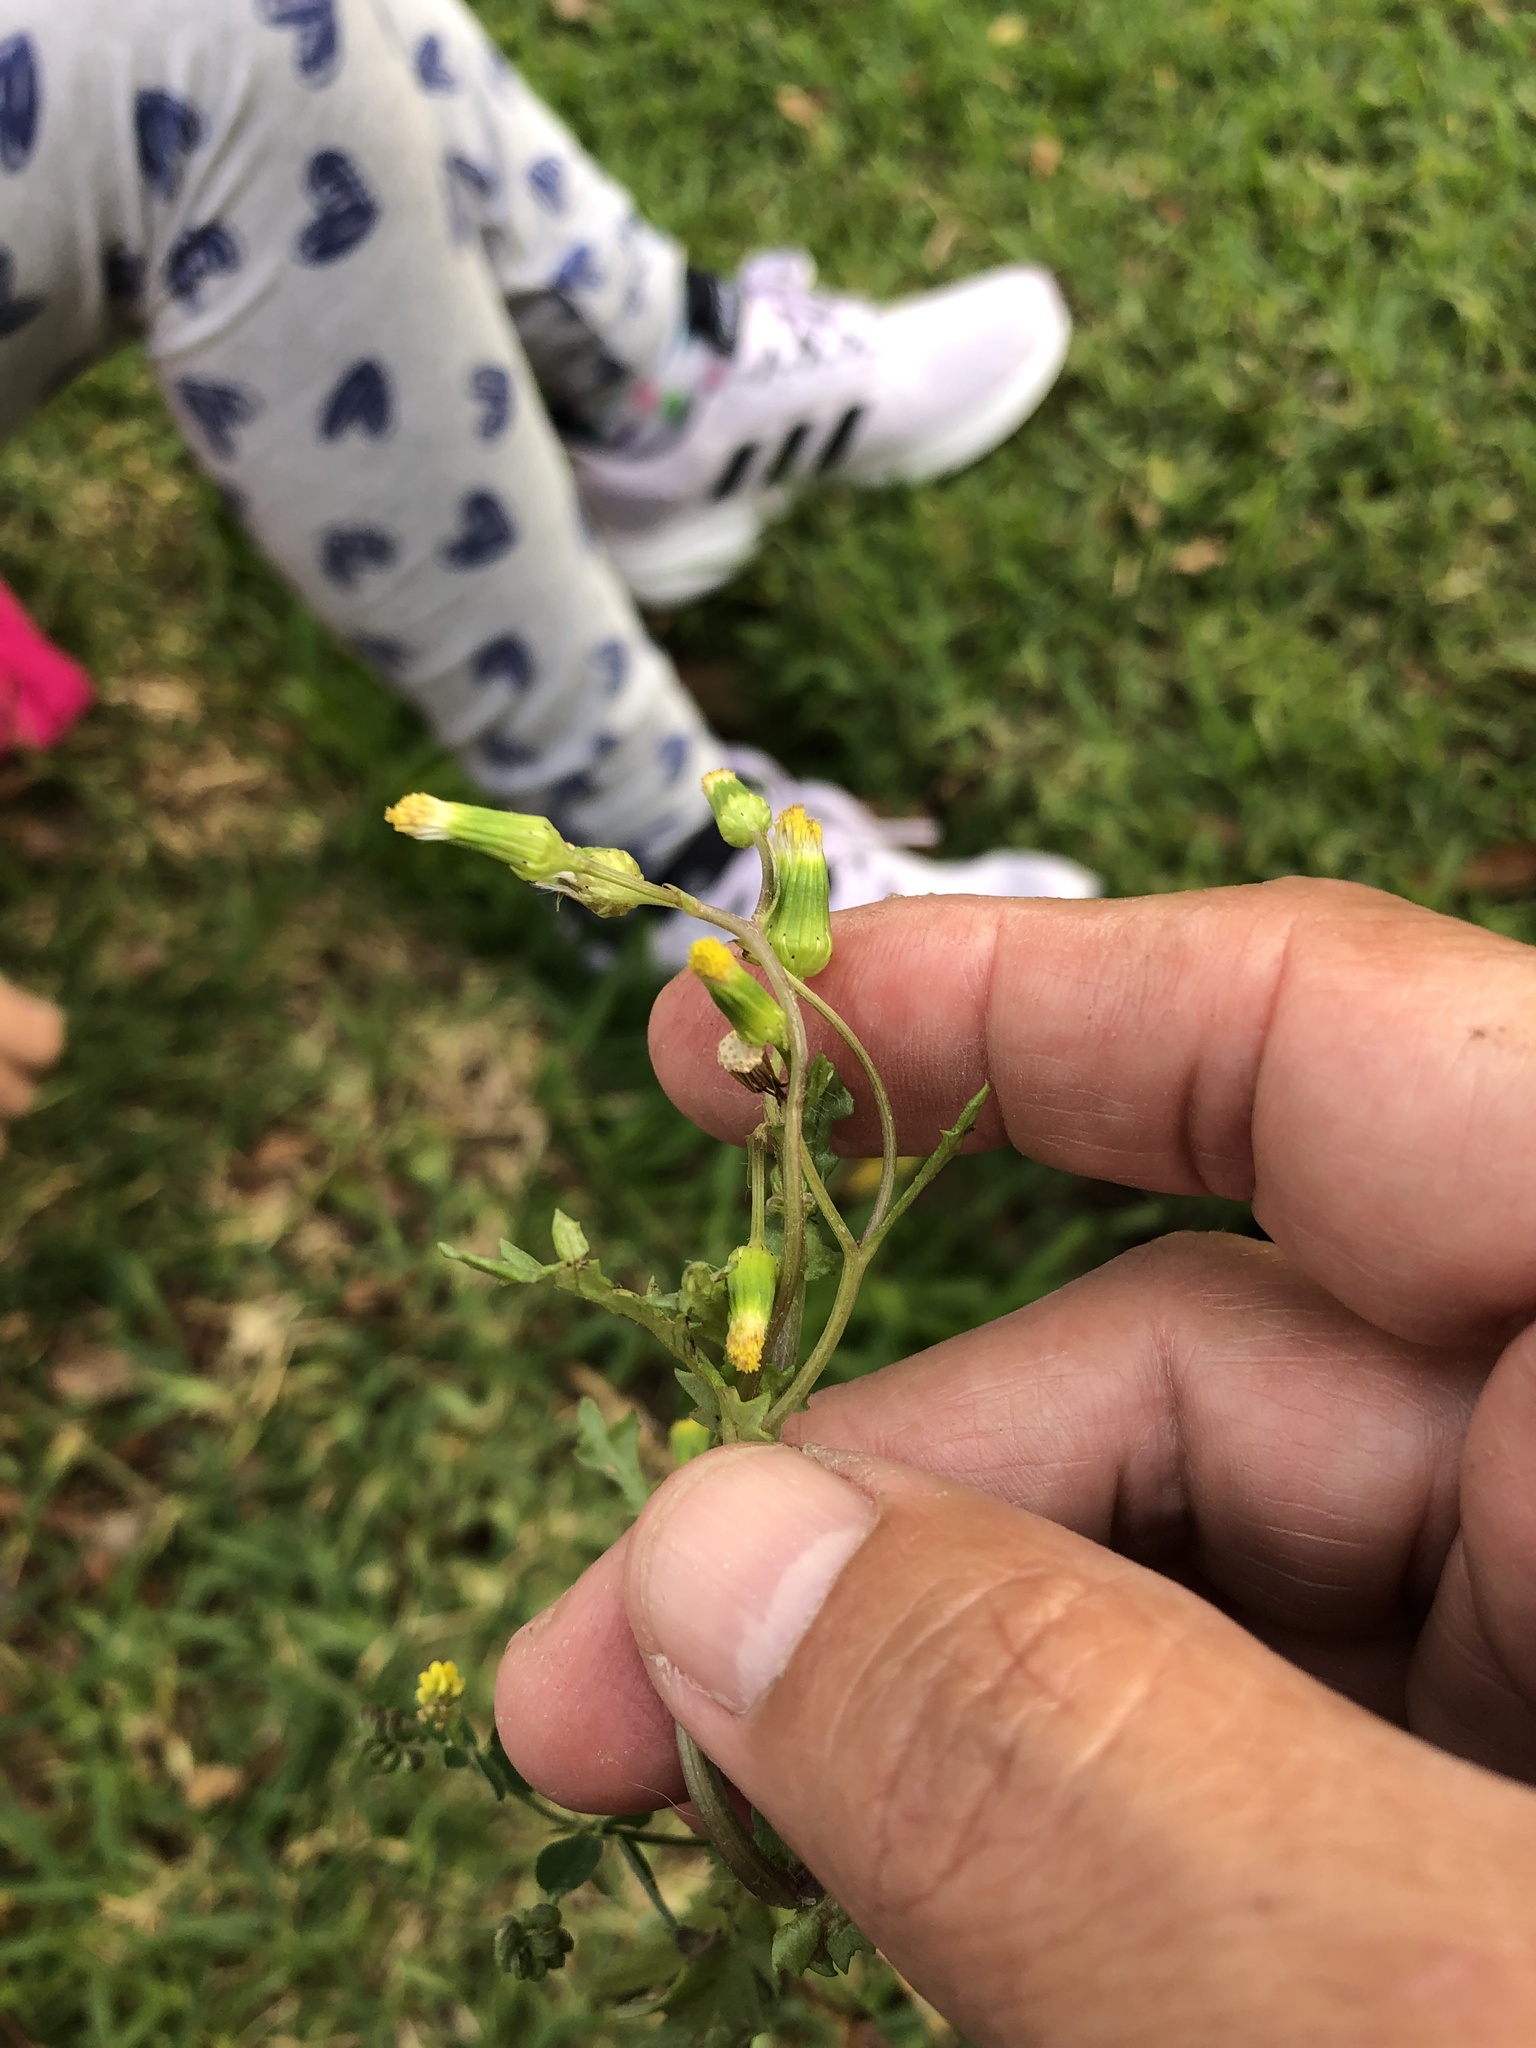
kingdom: Plantae
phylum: Tracheophyta
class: Magnoliopsida
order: Asterales
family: Asteraceae
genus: Senecio
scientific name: Senecio vulgaris
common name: Old-man-in-the-spring
